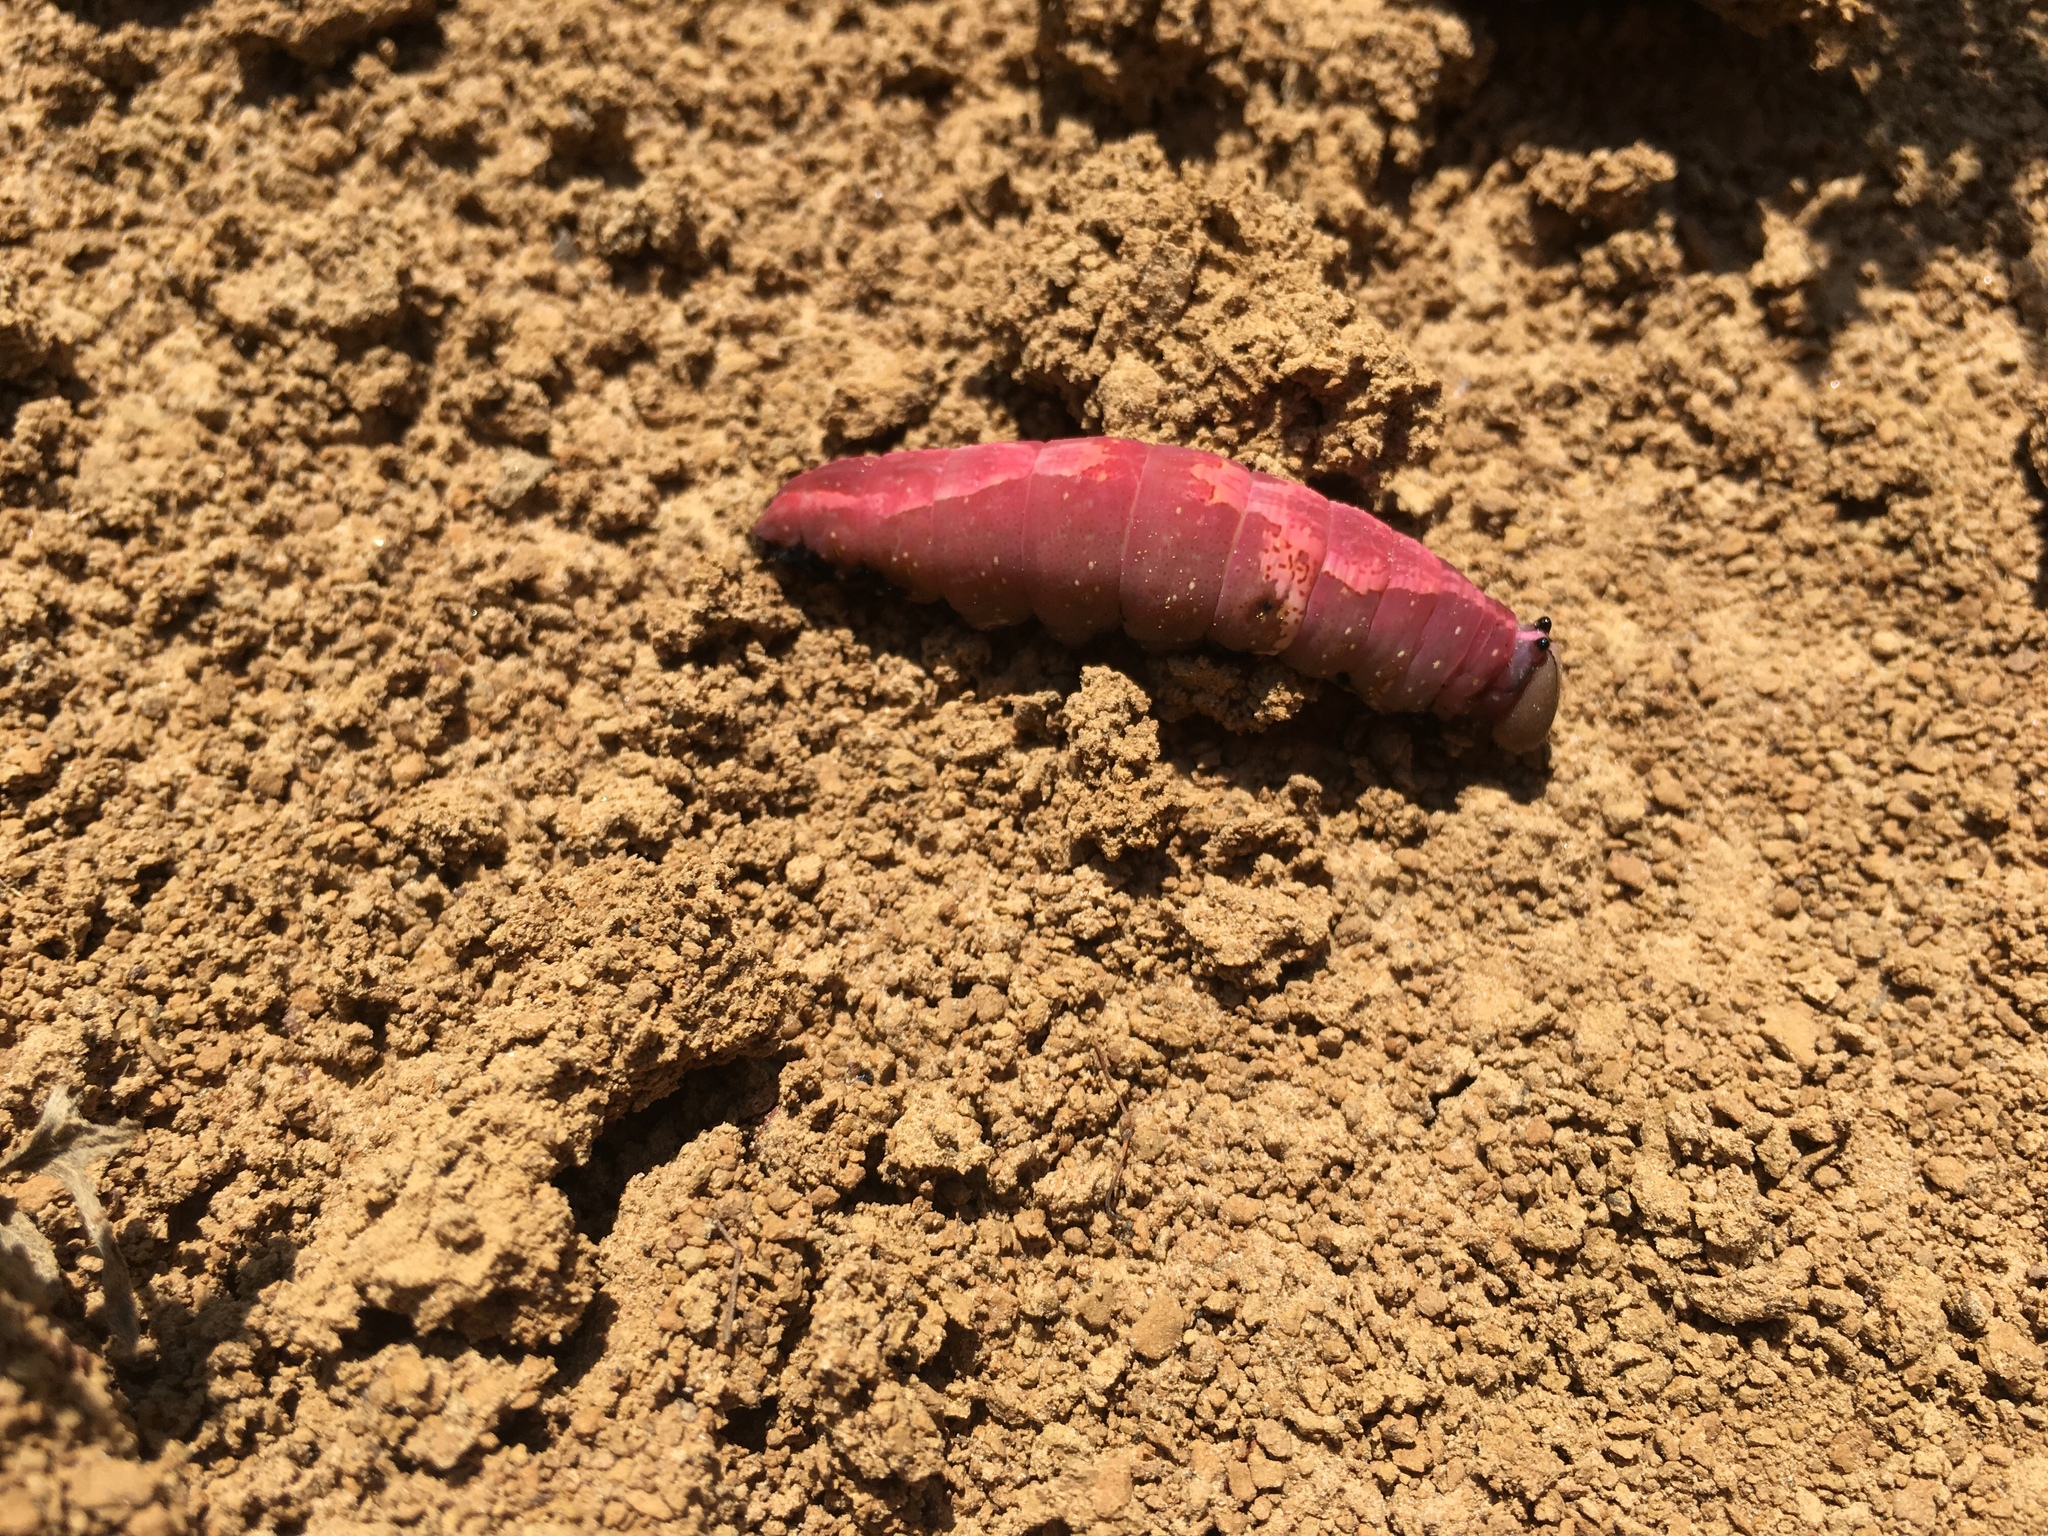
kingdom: Animalia
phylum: Arthropoda
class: Insecta
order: Lepidoptera
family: Notodontidae
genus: Heterocampa
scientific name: Heterocampa
